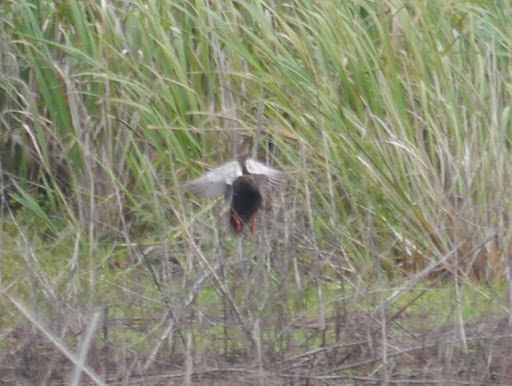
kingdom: Animalia
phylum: Chordata
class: Aves
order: Anseriformes
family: Anatidae
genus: Anas
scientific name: Anas fulvigula
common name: Mottled duck
